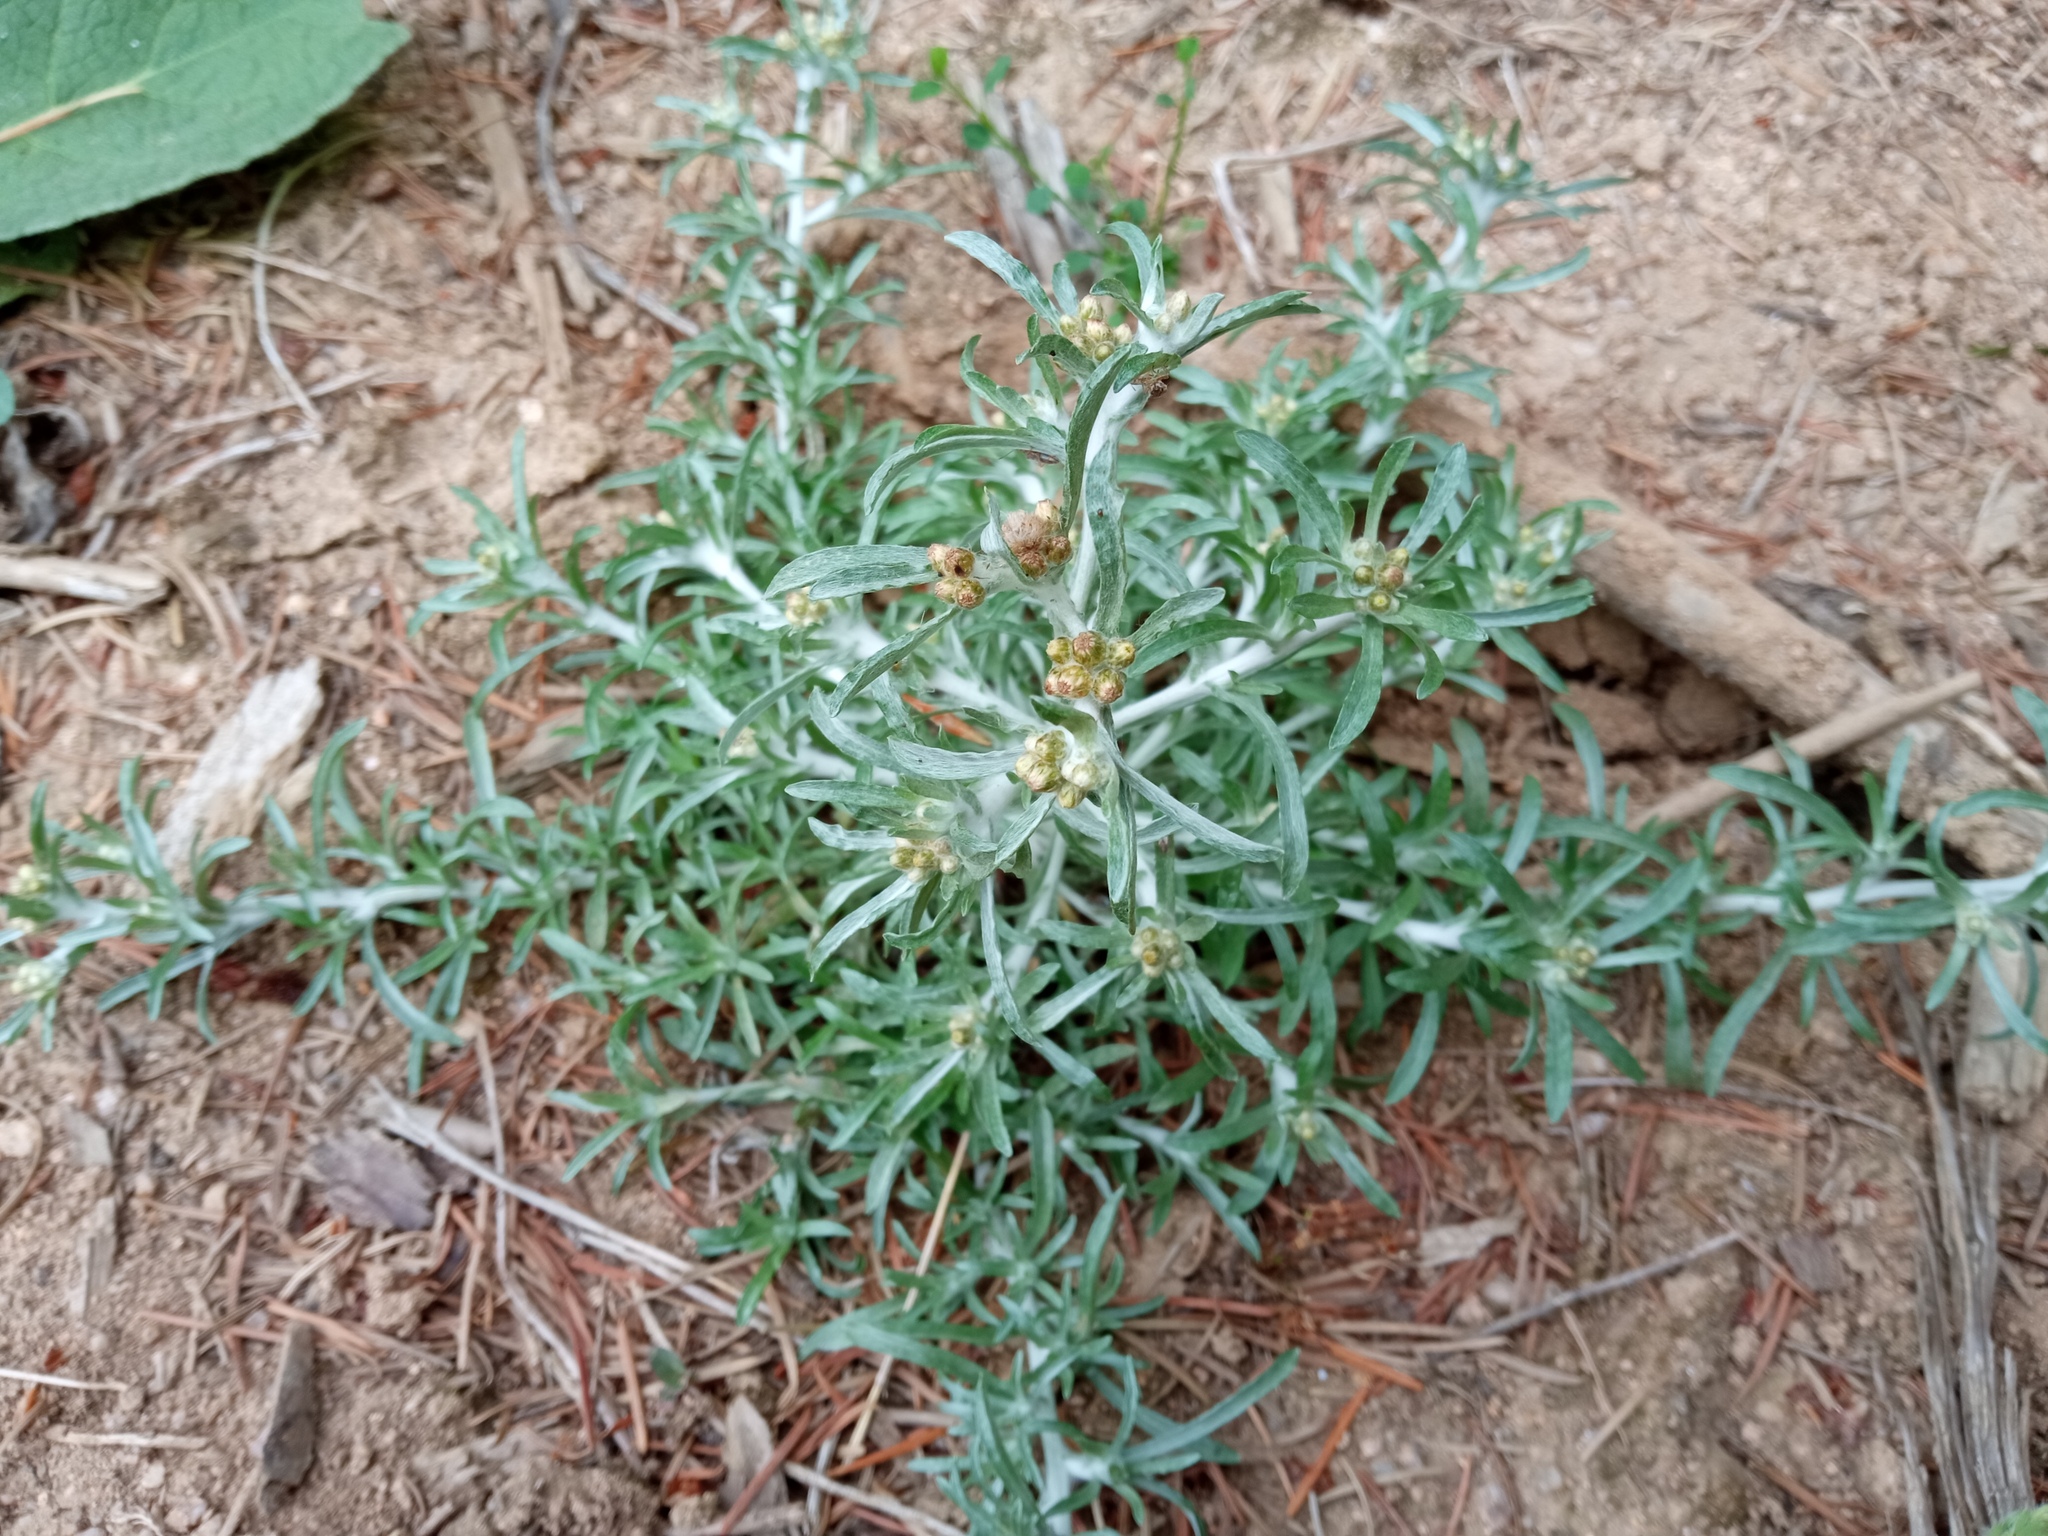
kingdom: Plantae
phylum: Tracheophyta
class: Magnoliopsida
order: Asterales
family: Asteraceae
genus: Gnaphalium
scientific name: Gnaphalium uliginosum
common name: Marsh cudweed
